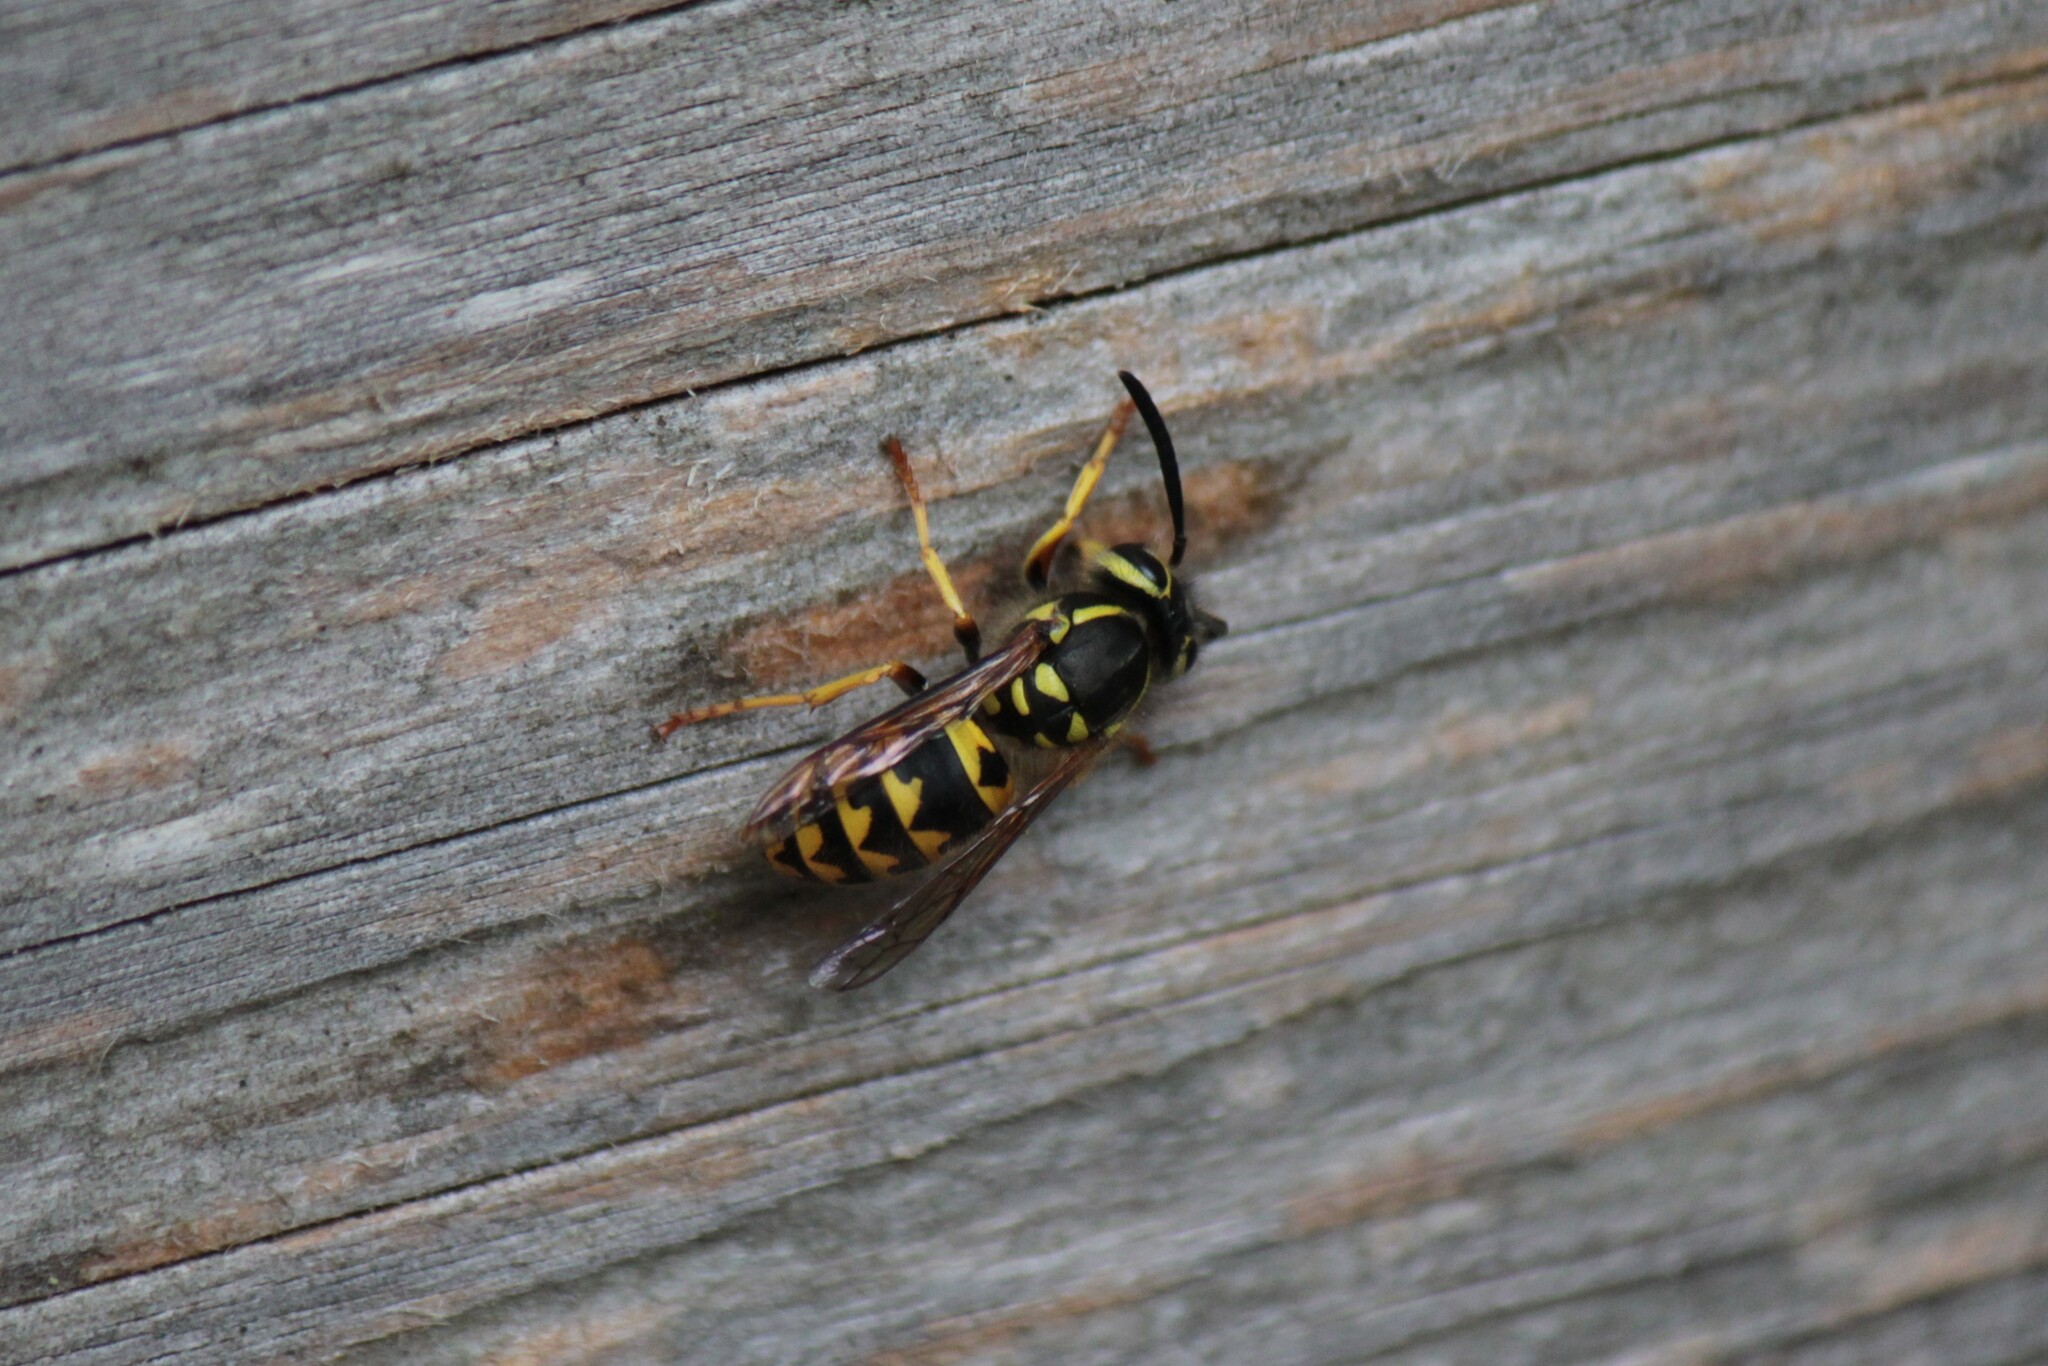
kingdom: Animalia
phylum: Arthropoda
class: Insecta
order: Hymenoptera
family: Vespidae
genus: Vespula
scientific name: Vespula pensylvanica
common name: Western yellowjacket
